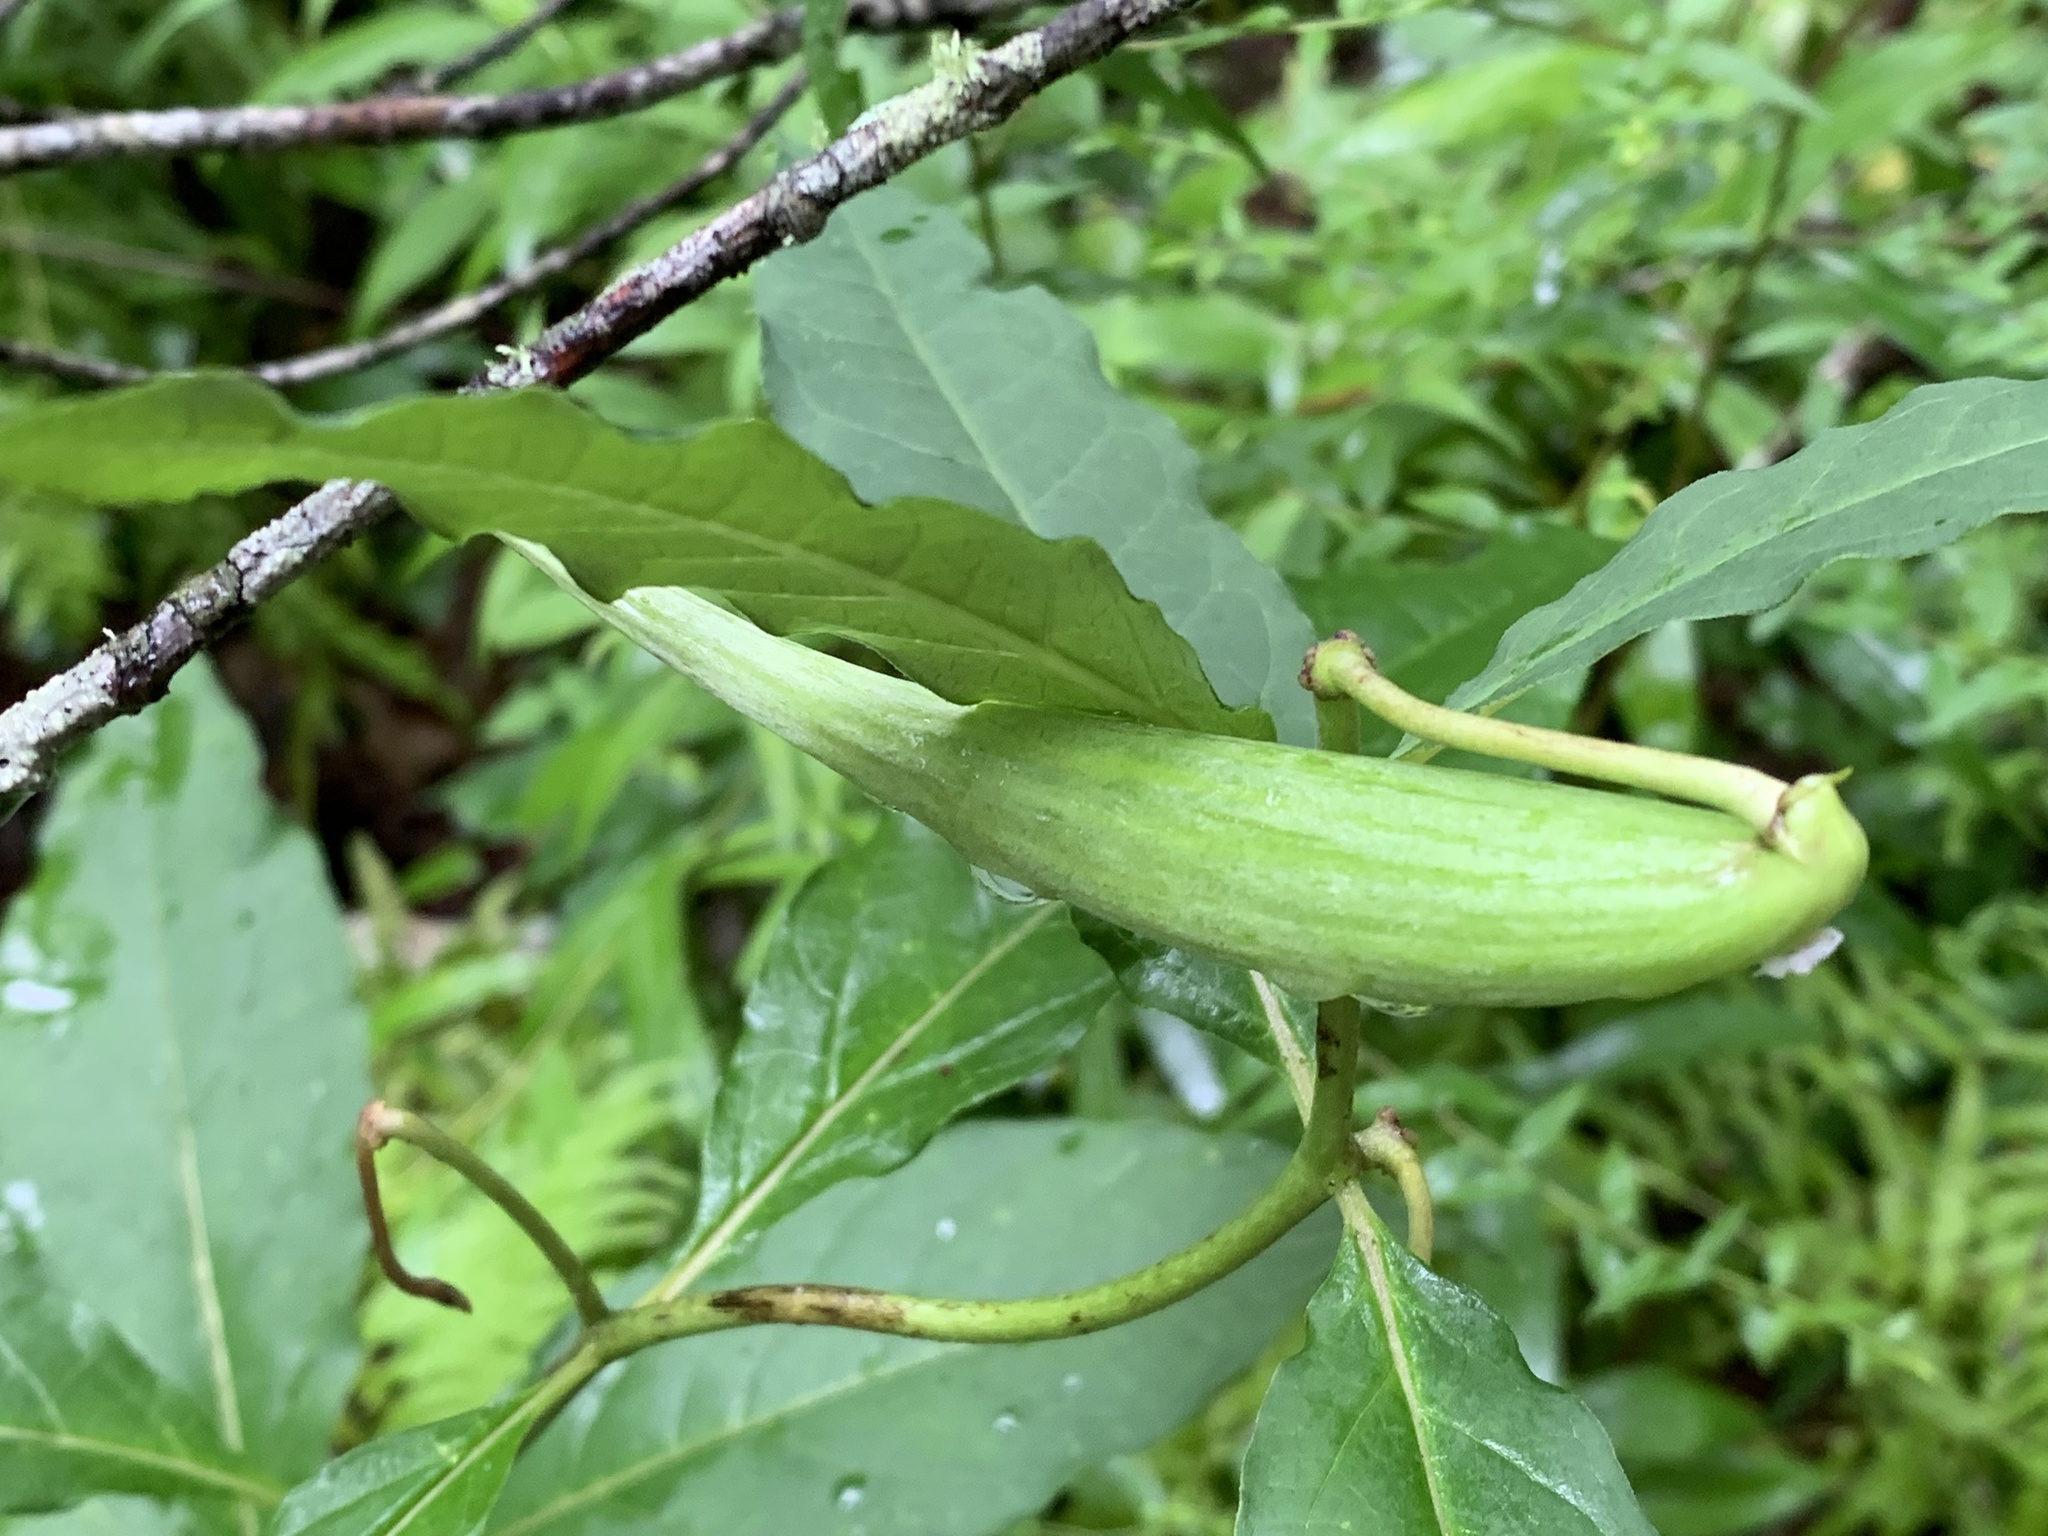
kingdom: Plantae
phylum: Tracheophyta
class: Magnoliopsida
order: Gentianales
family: Apocynaceae
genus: Asclepias
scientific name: Asclepias exaltata
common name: Poke milkweed
